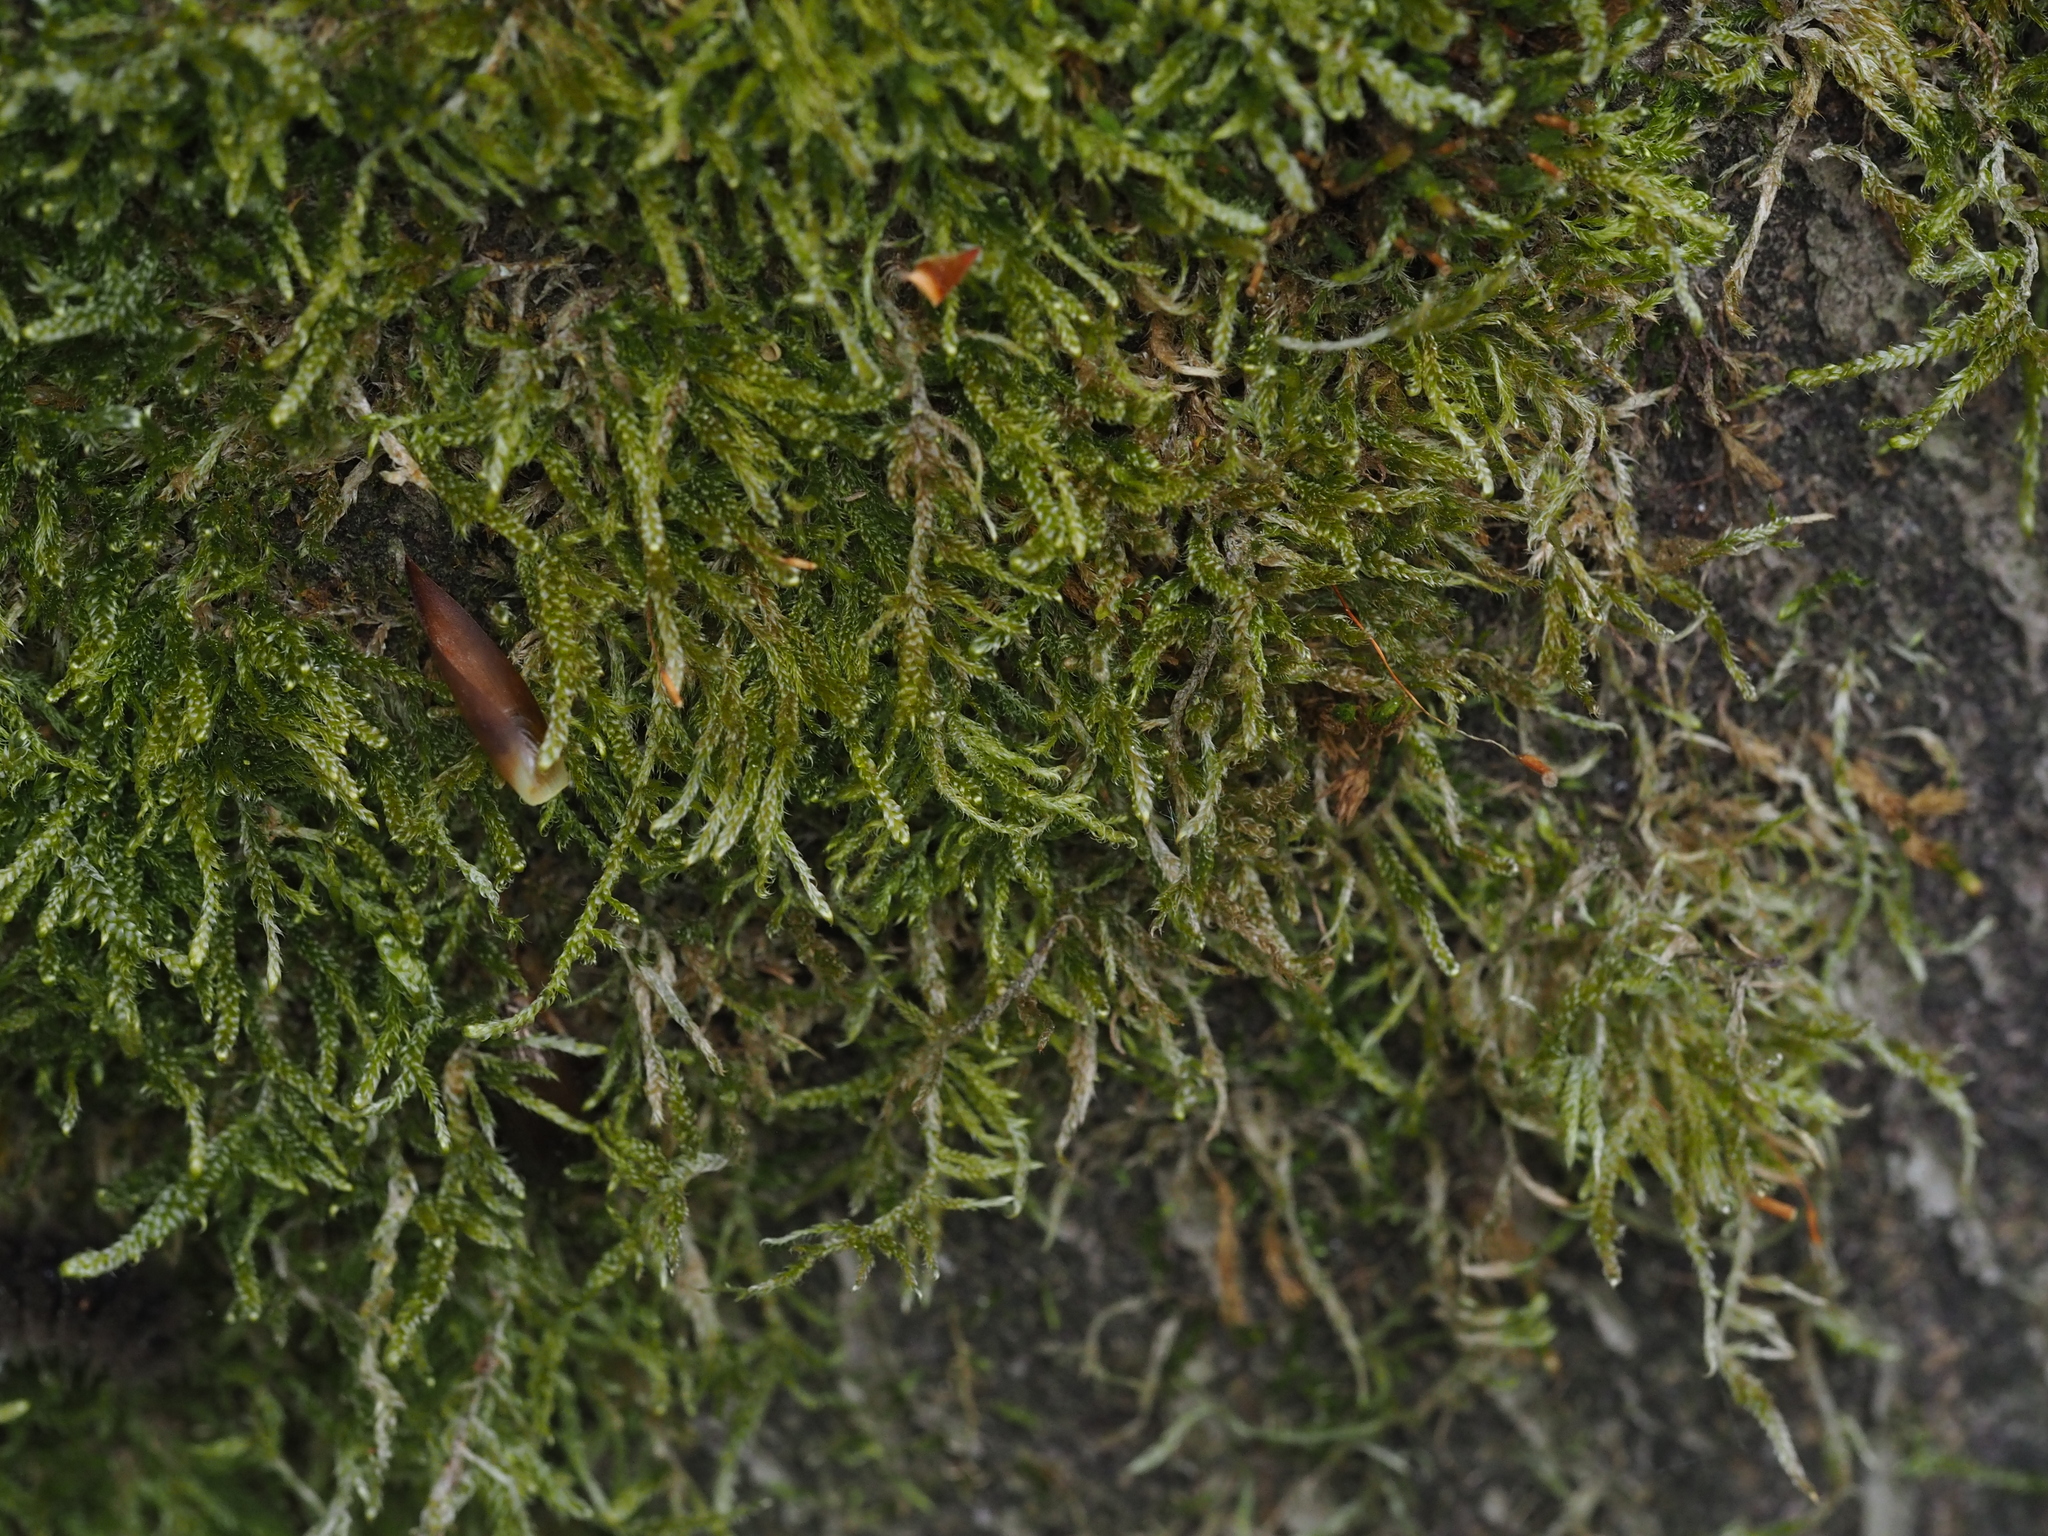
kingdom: Plantae
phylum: Bryophyta
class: Bryopsida
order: Hypnales
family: Hypnaceae
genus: Hypnum
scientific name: Hypnum cupressiforme
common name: Cypress-leaved plait-moss
